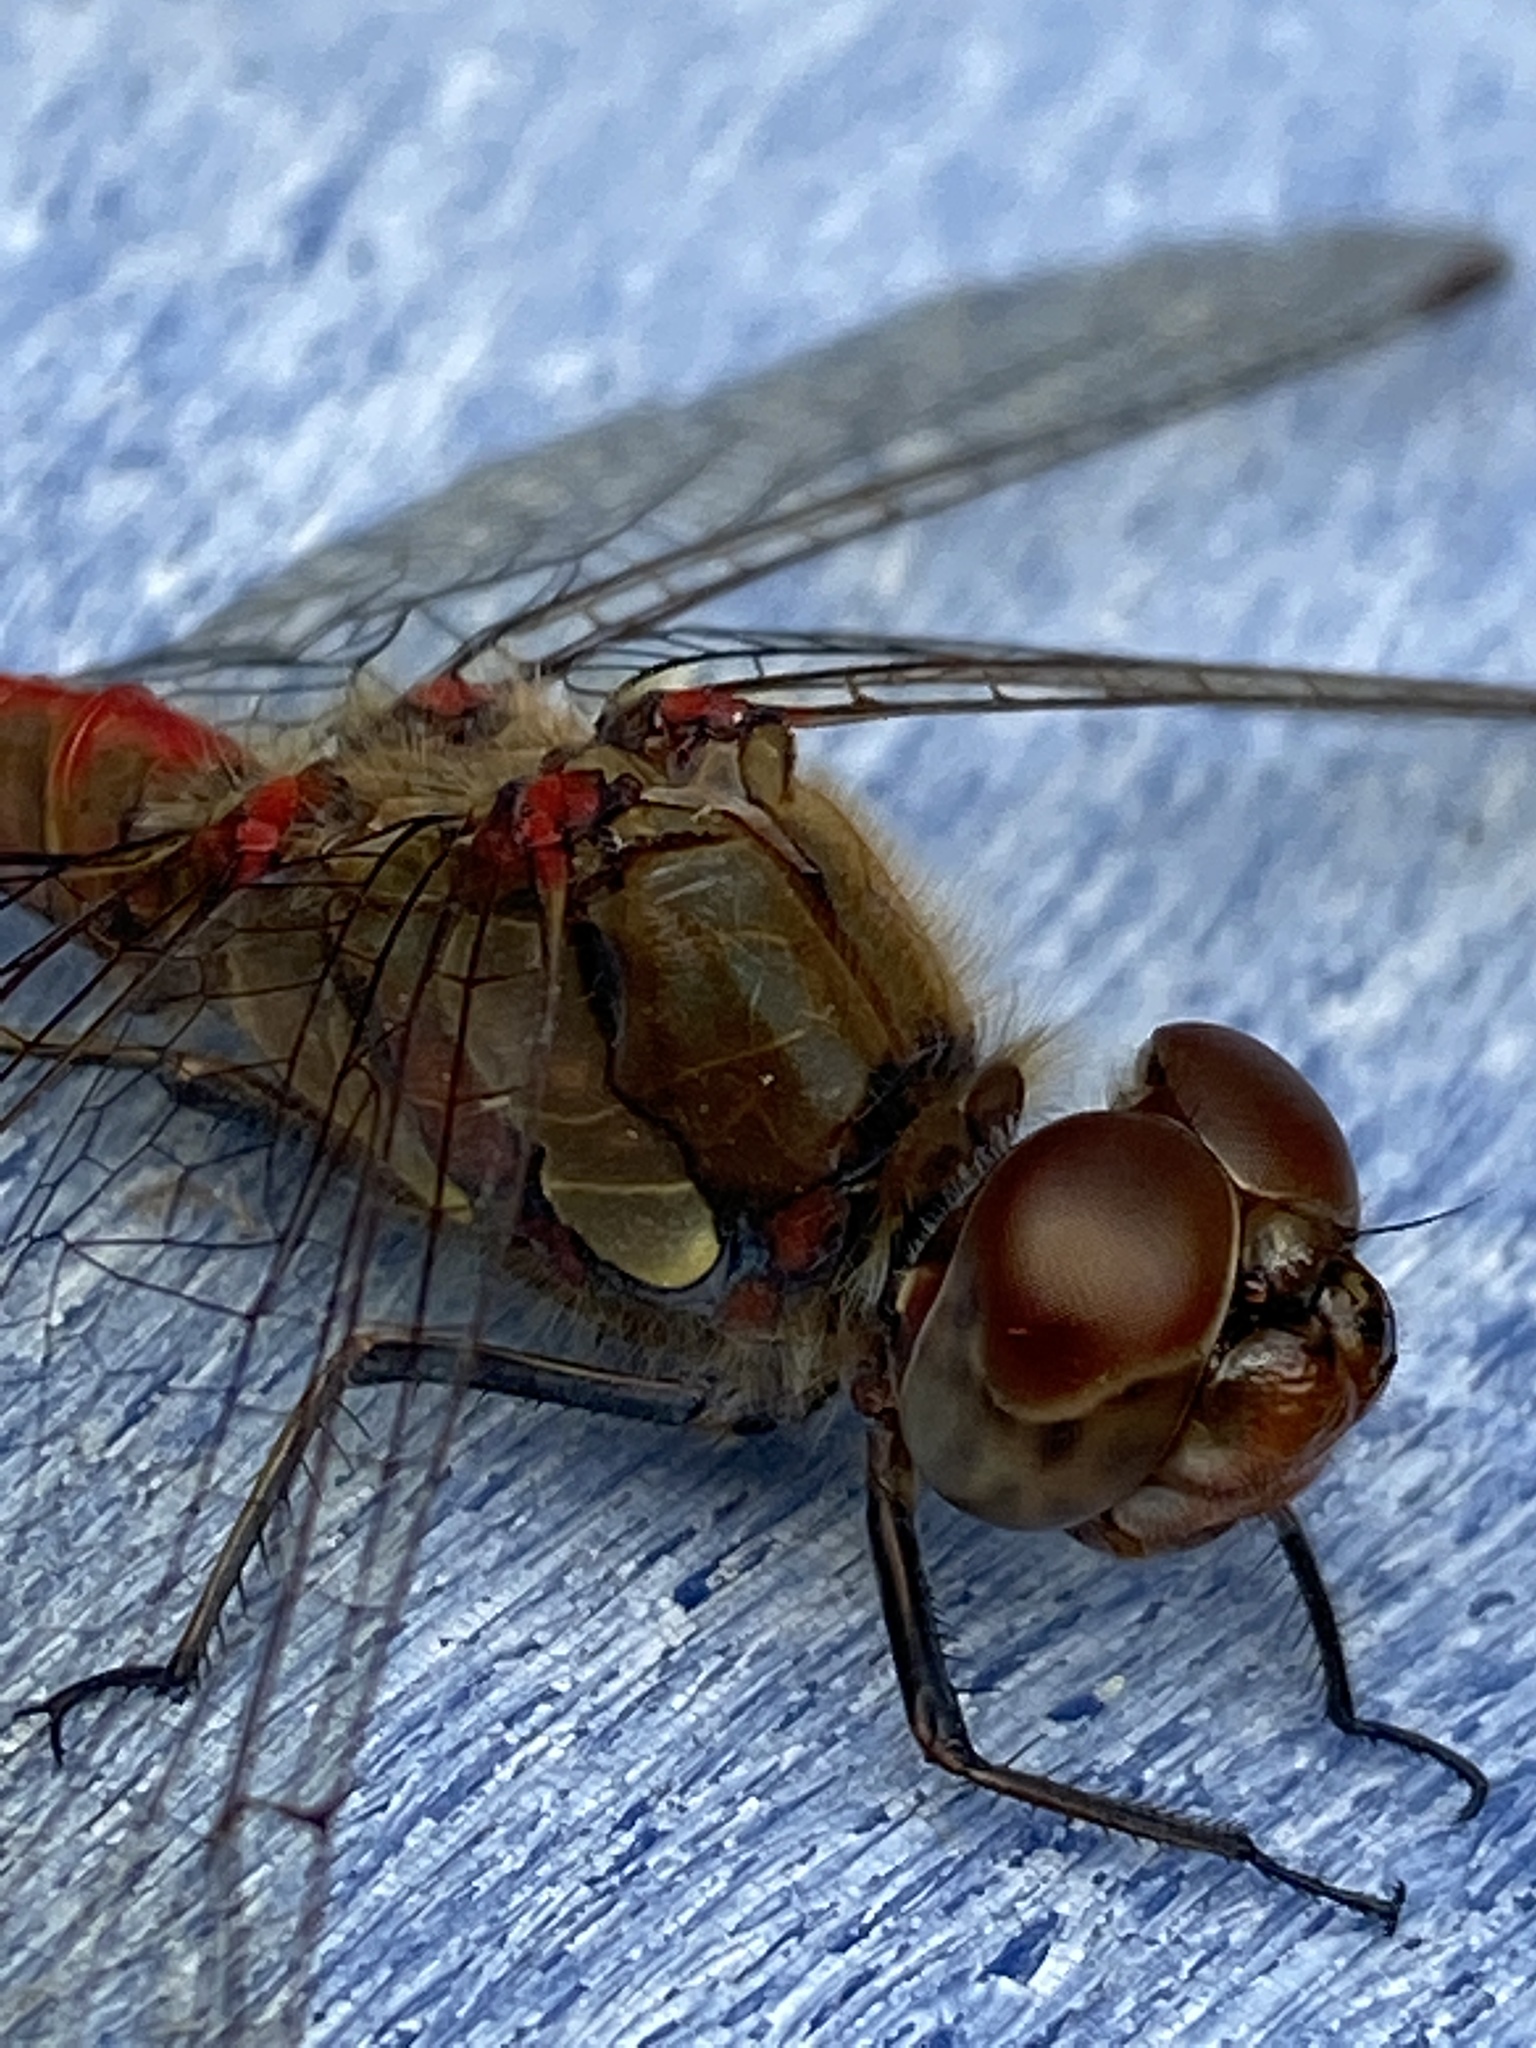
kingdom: Animalia
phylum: Arthropoda
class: Insecta
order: Odonata
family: Libellulidae
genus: Sympetrum
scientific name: Sympetrum striolatum
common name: Common darter
